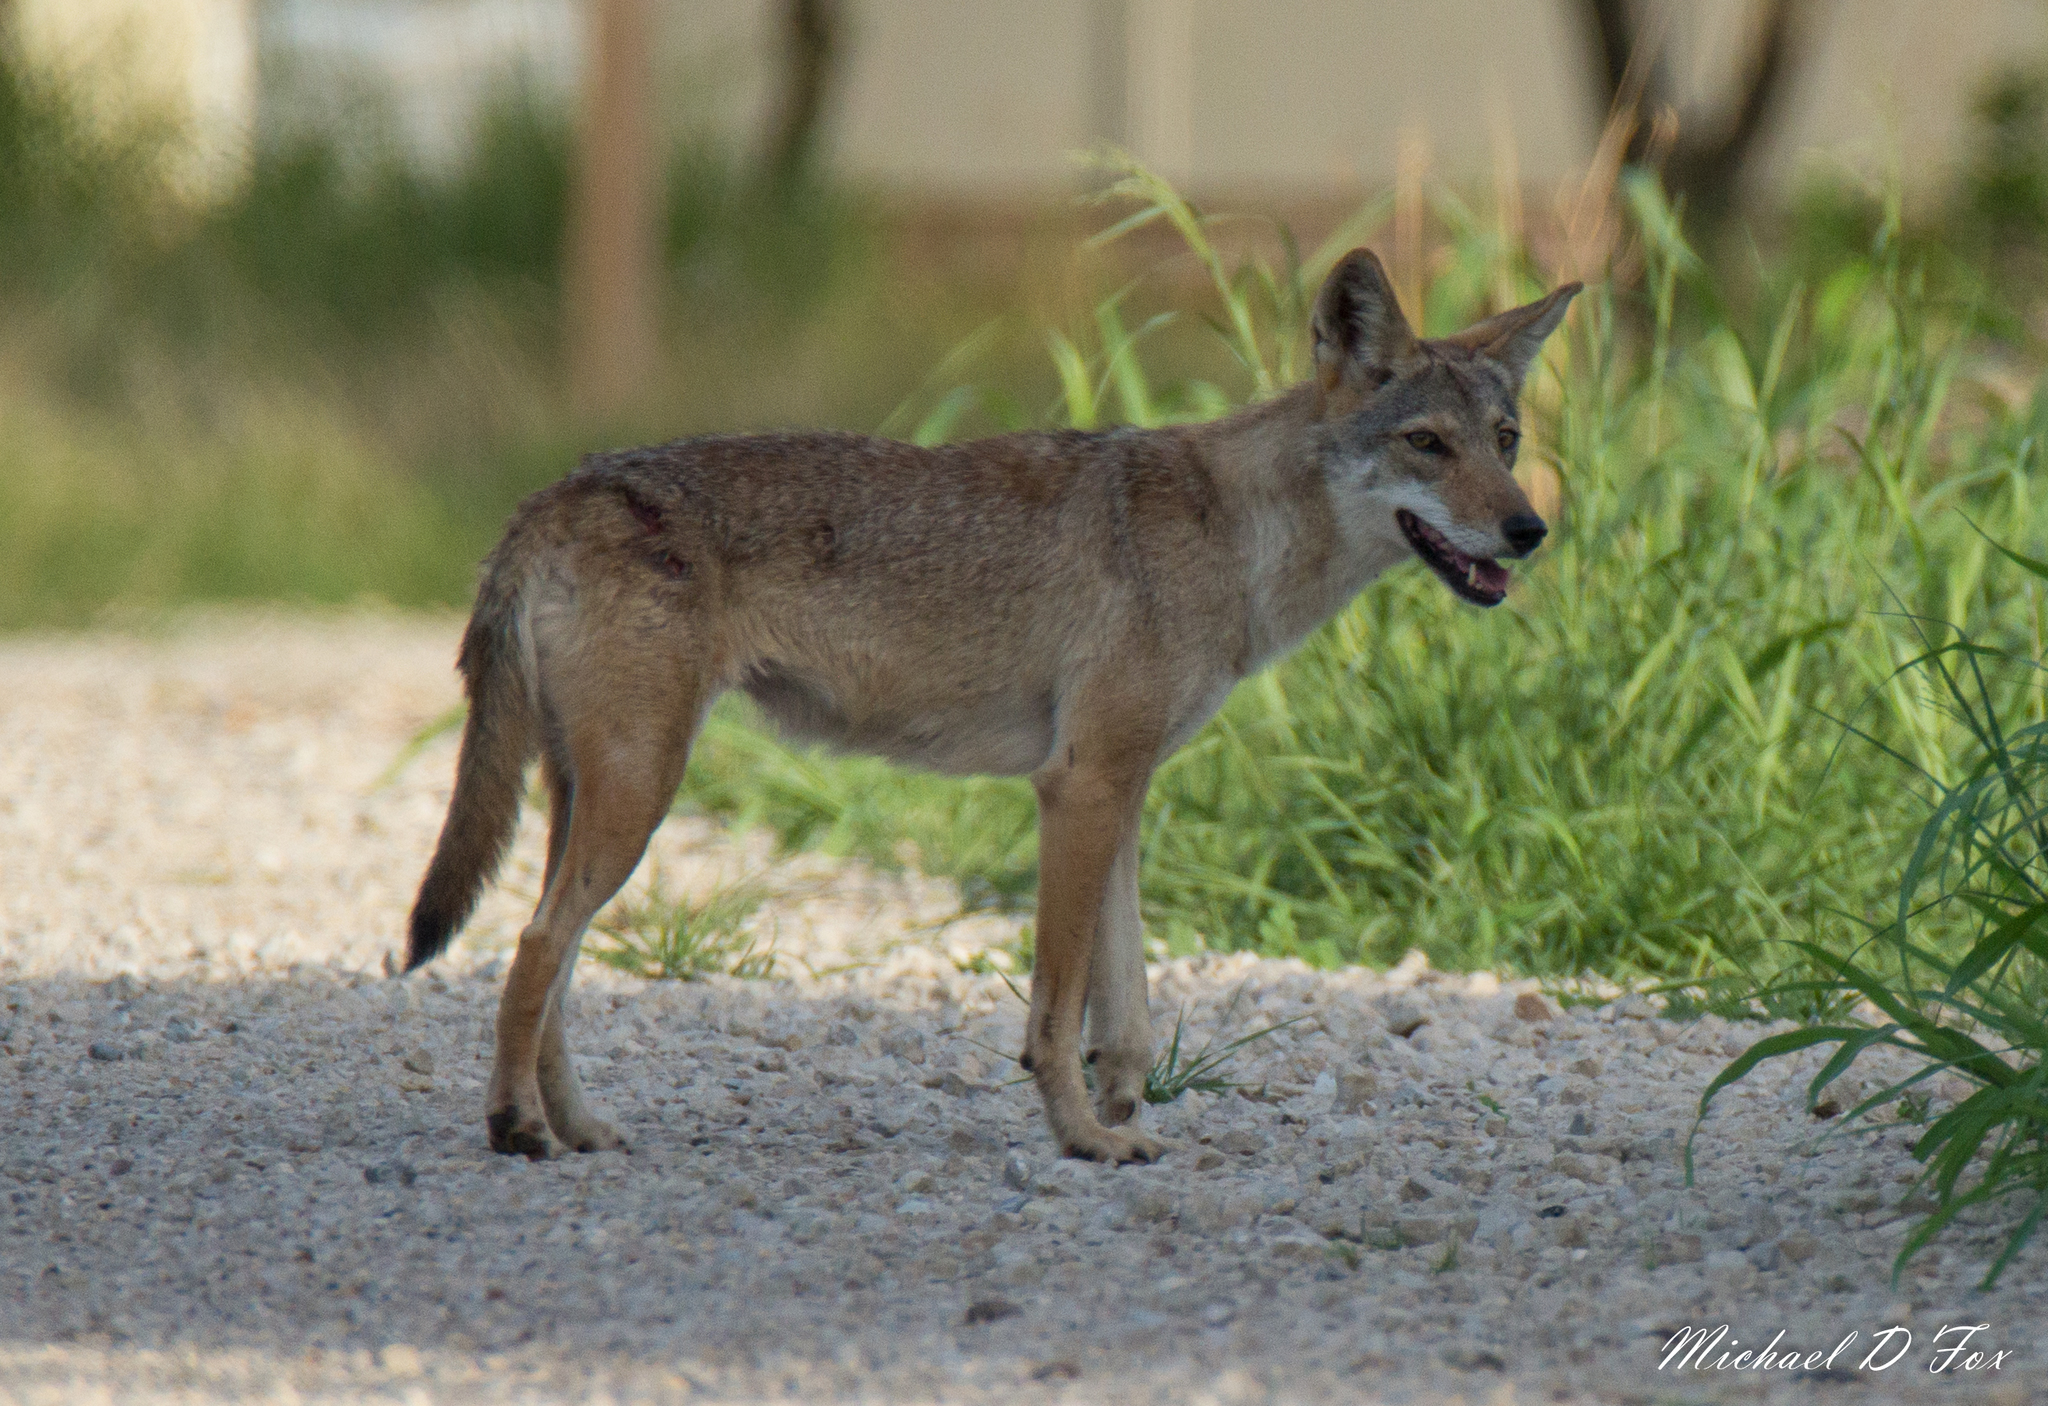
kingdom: Animalia
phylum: Chordata
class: Mammalia
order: Carnivora
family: Canidae
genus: Canis
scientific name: Canis latrans
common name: Coyote
